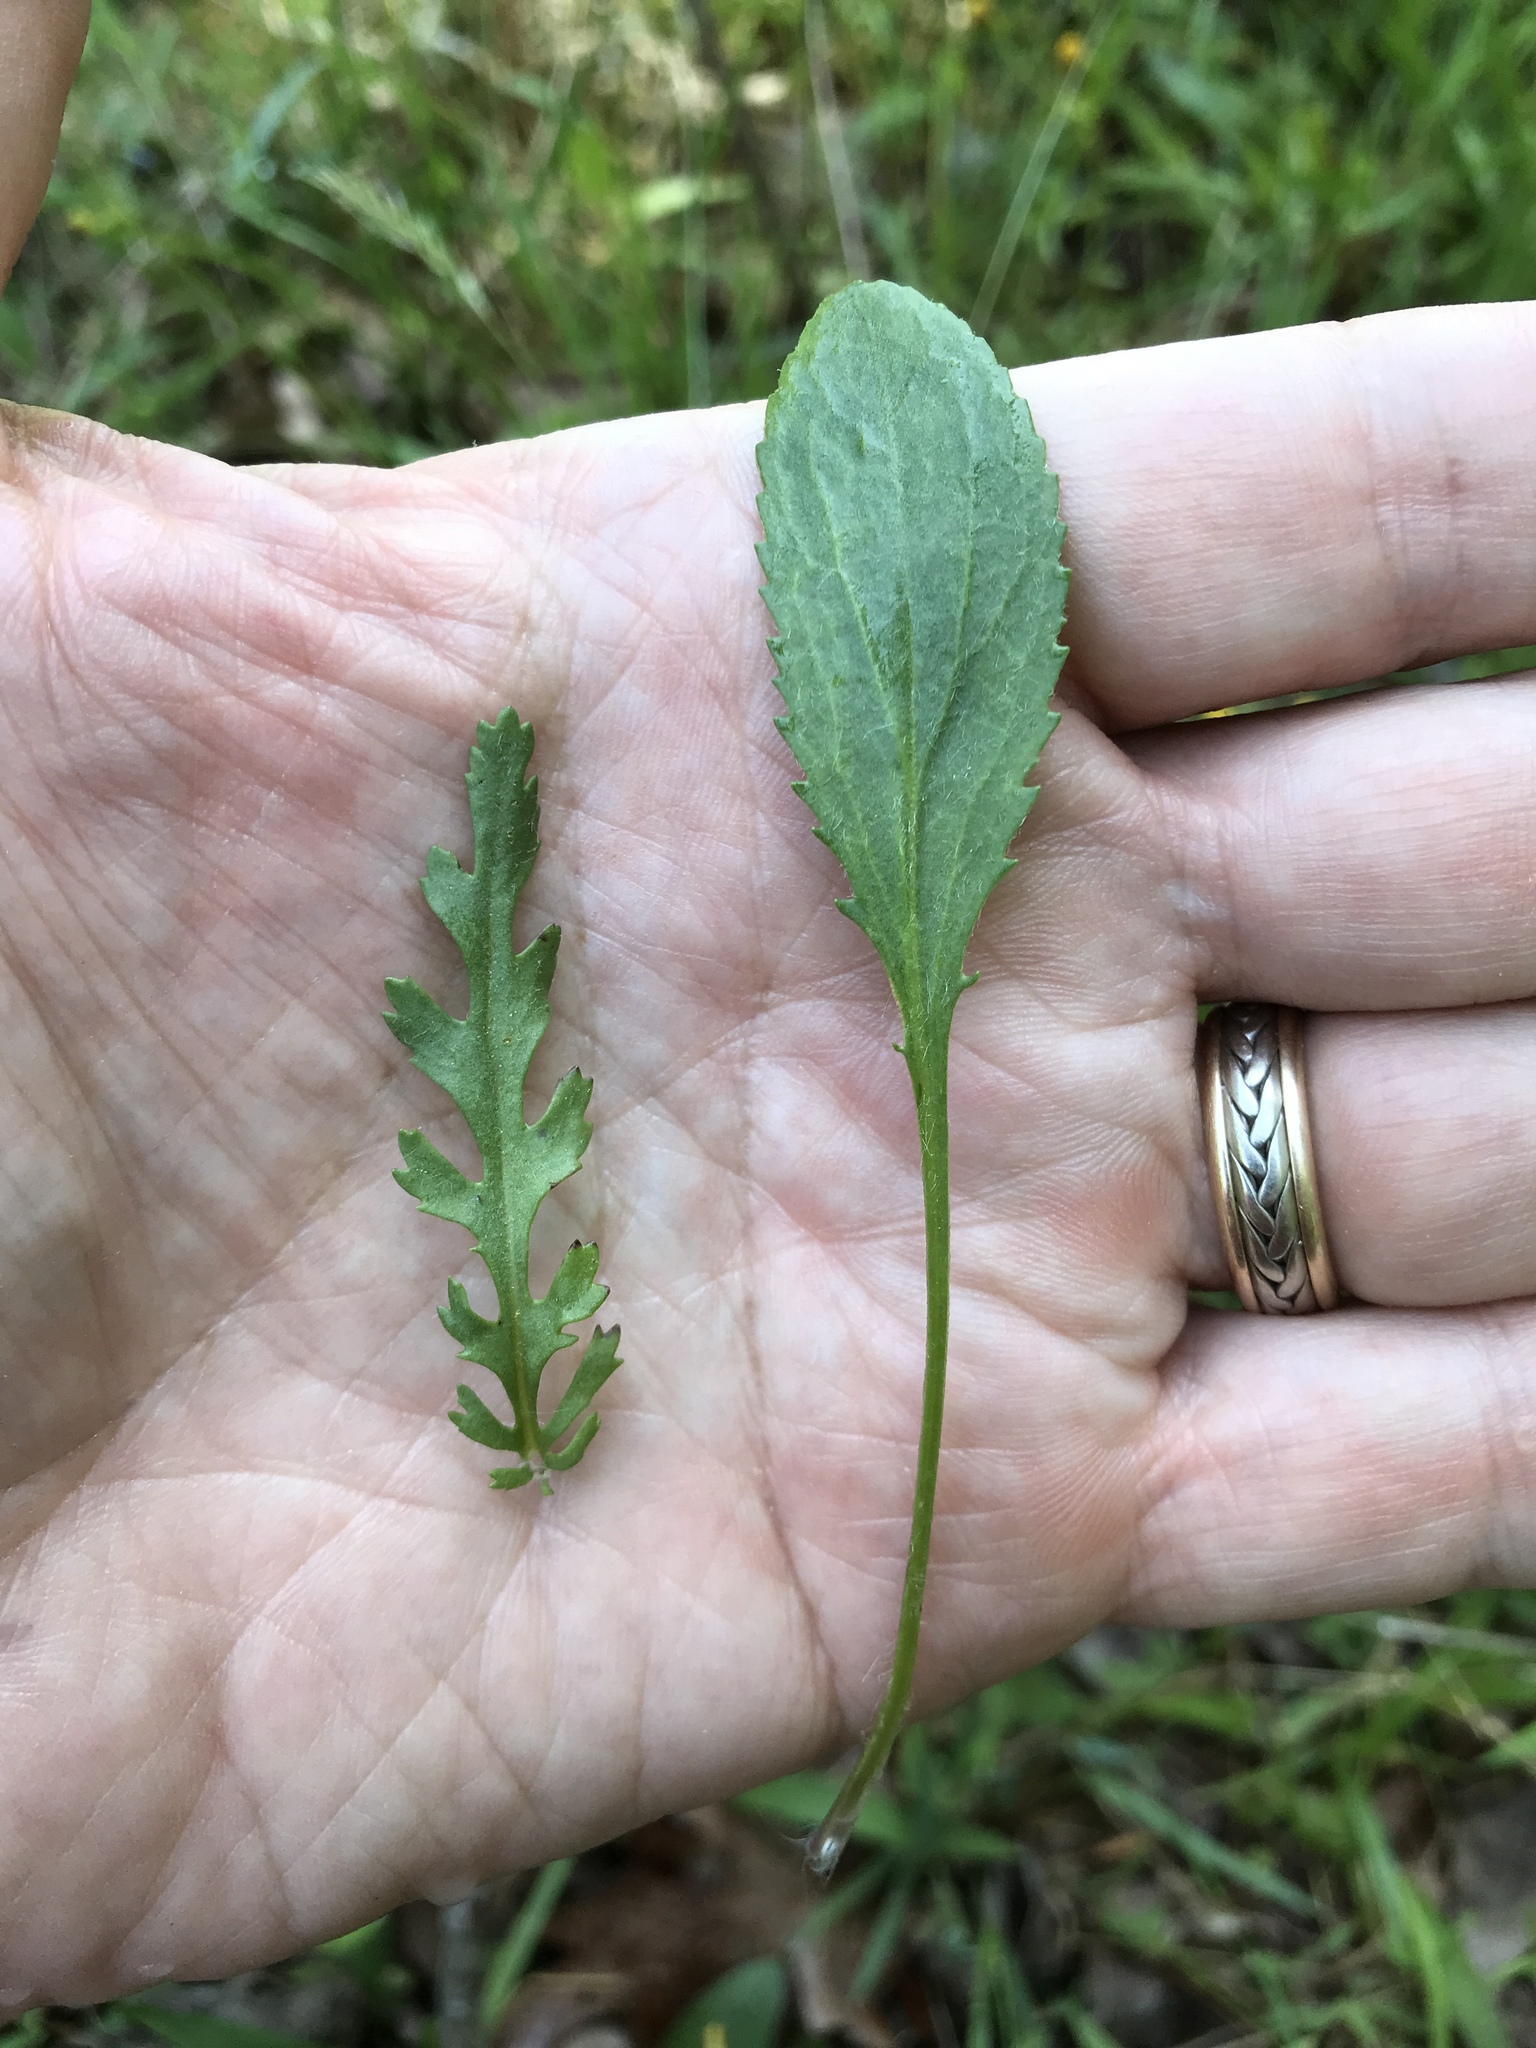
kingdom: Plantae
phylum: Tracheophyta
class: Magnoliopsida
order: Asterales
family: Asteraceae
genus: Packera
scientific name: Packera paupercula
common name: Balsam groundsel
